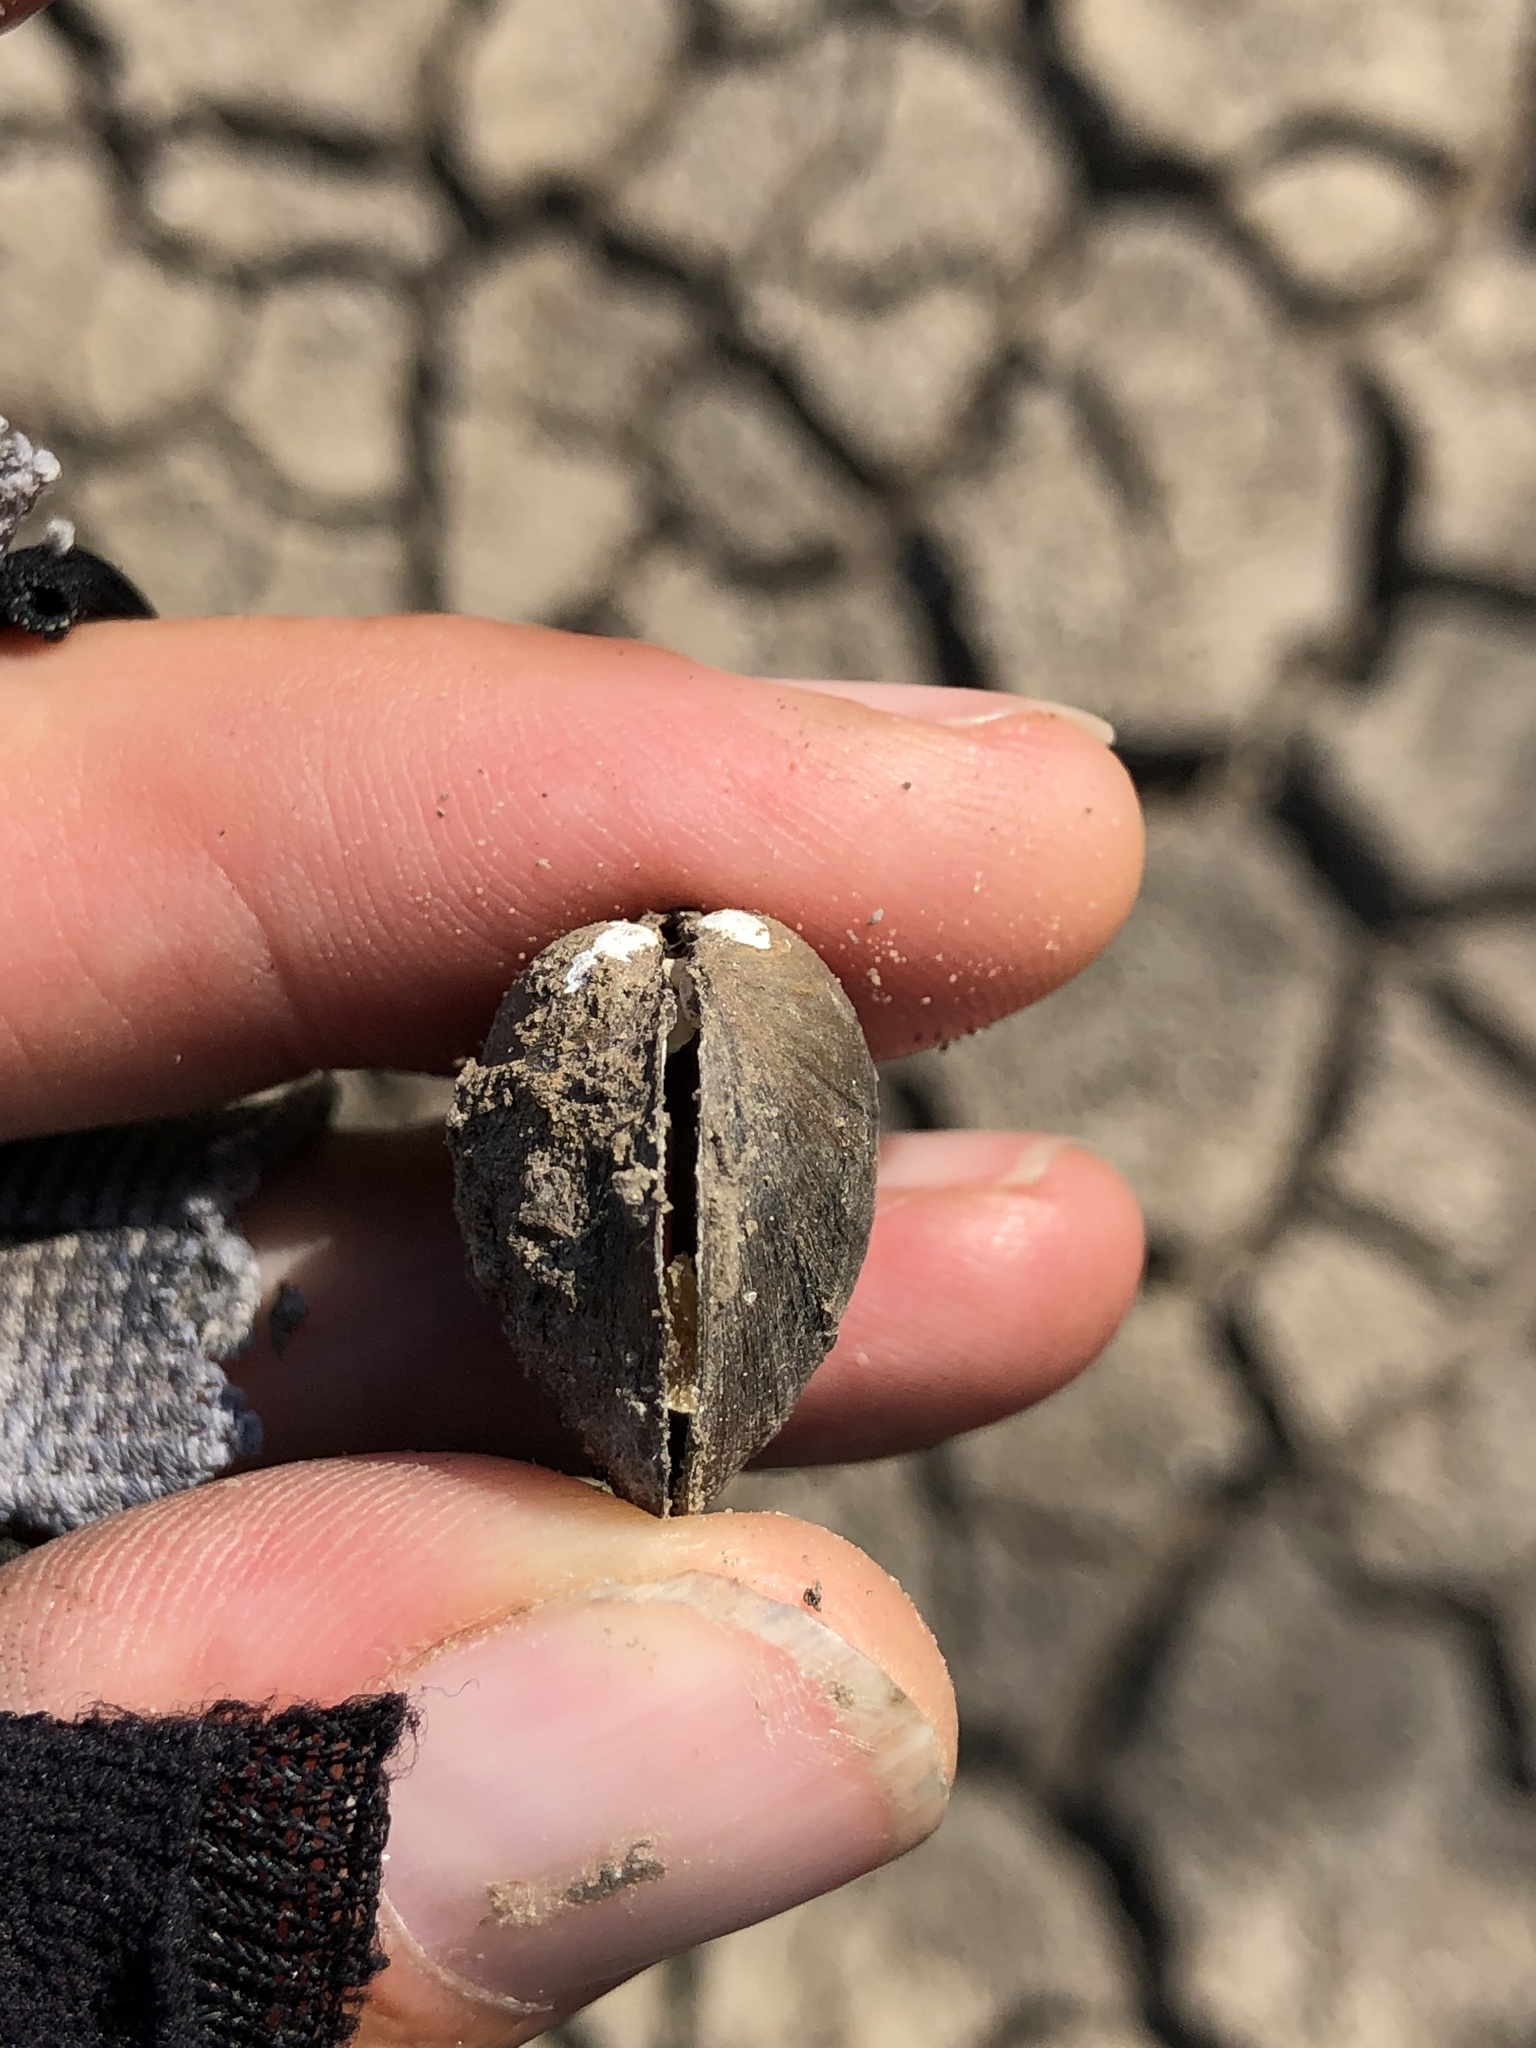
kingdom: Animalia
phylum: Mollusca
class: Bivalvia
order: Unionida
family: Unionidae
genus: Toxolasma
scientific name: Toxolasma texasiense
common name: Texas lilliput
